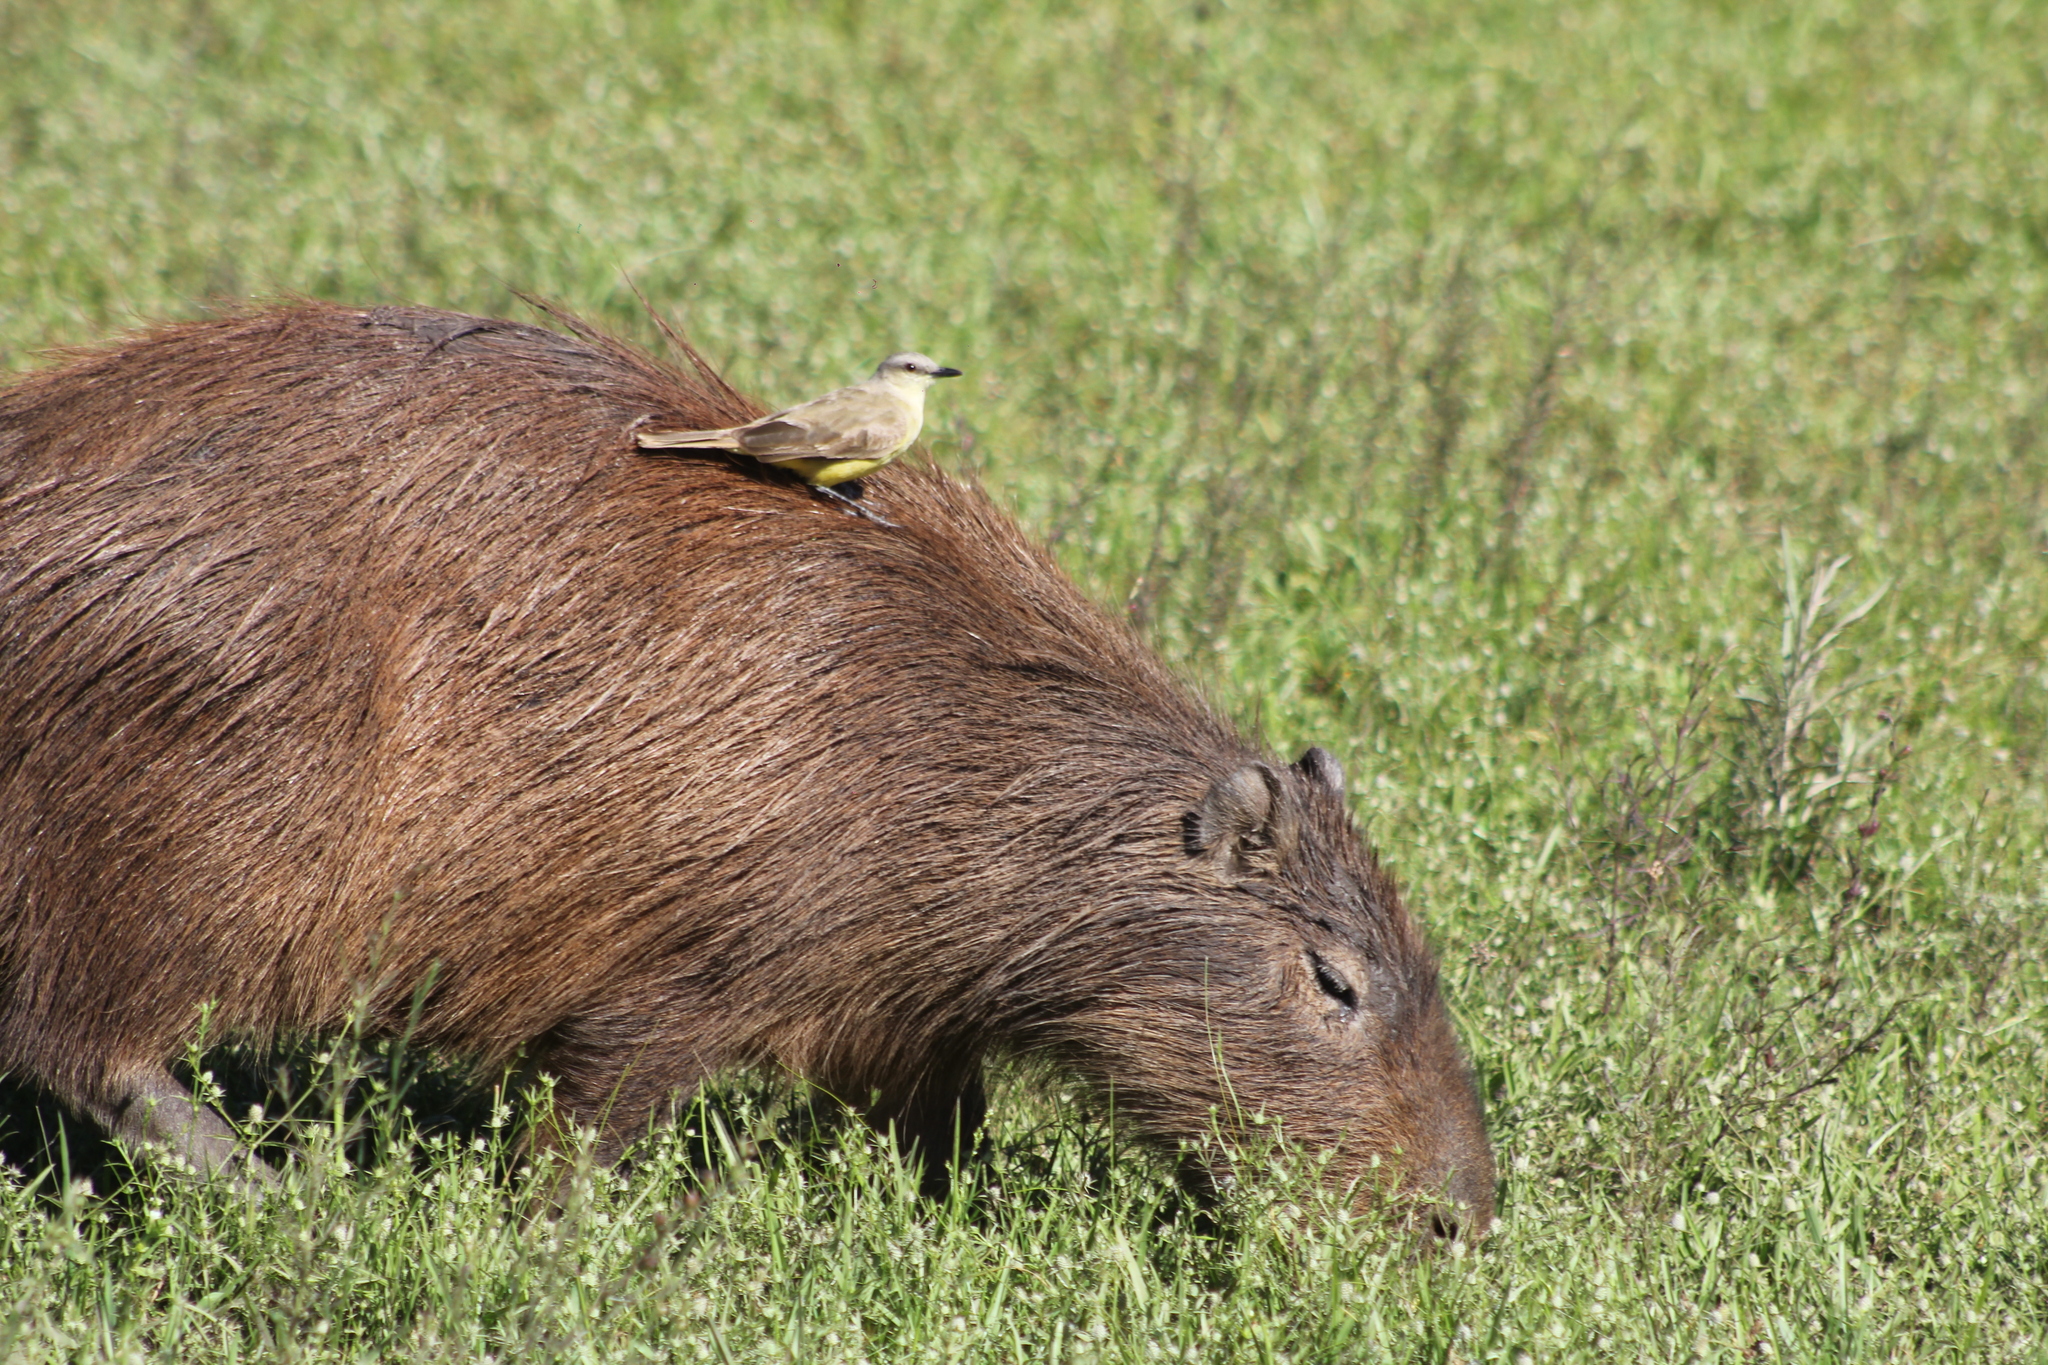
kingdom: Animalia
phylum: Chordata
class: Aves
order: Passeriformes
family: Tyrannidae
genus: Machetornis
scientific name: Machetornis rixosa
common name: Cattle tyrant
